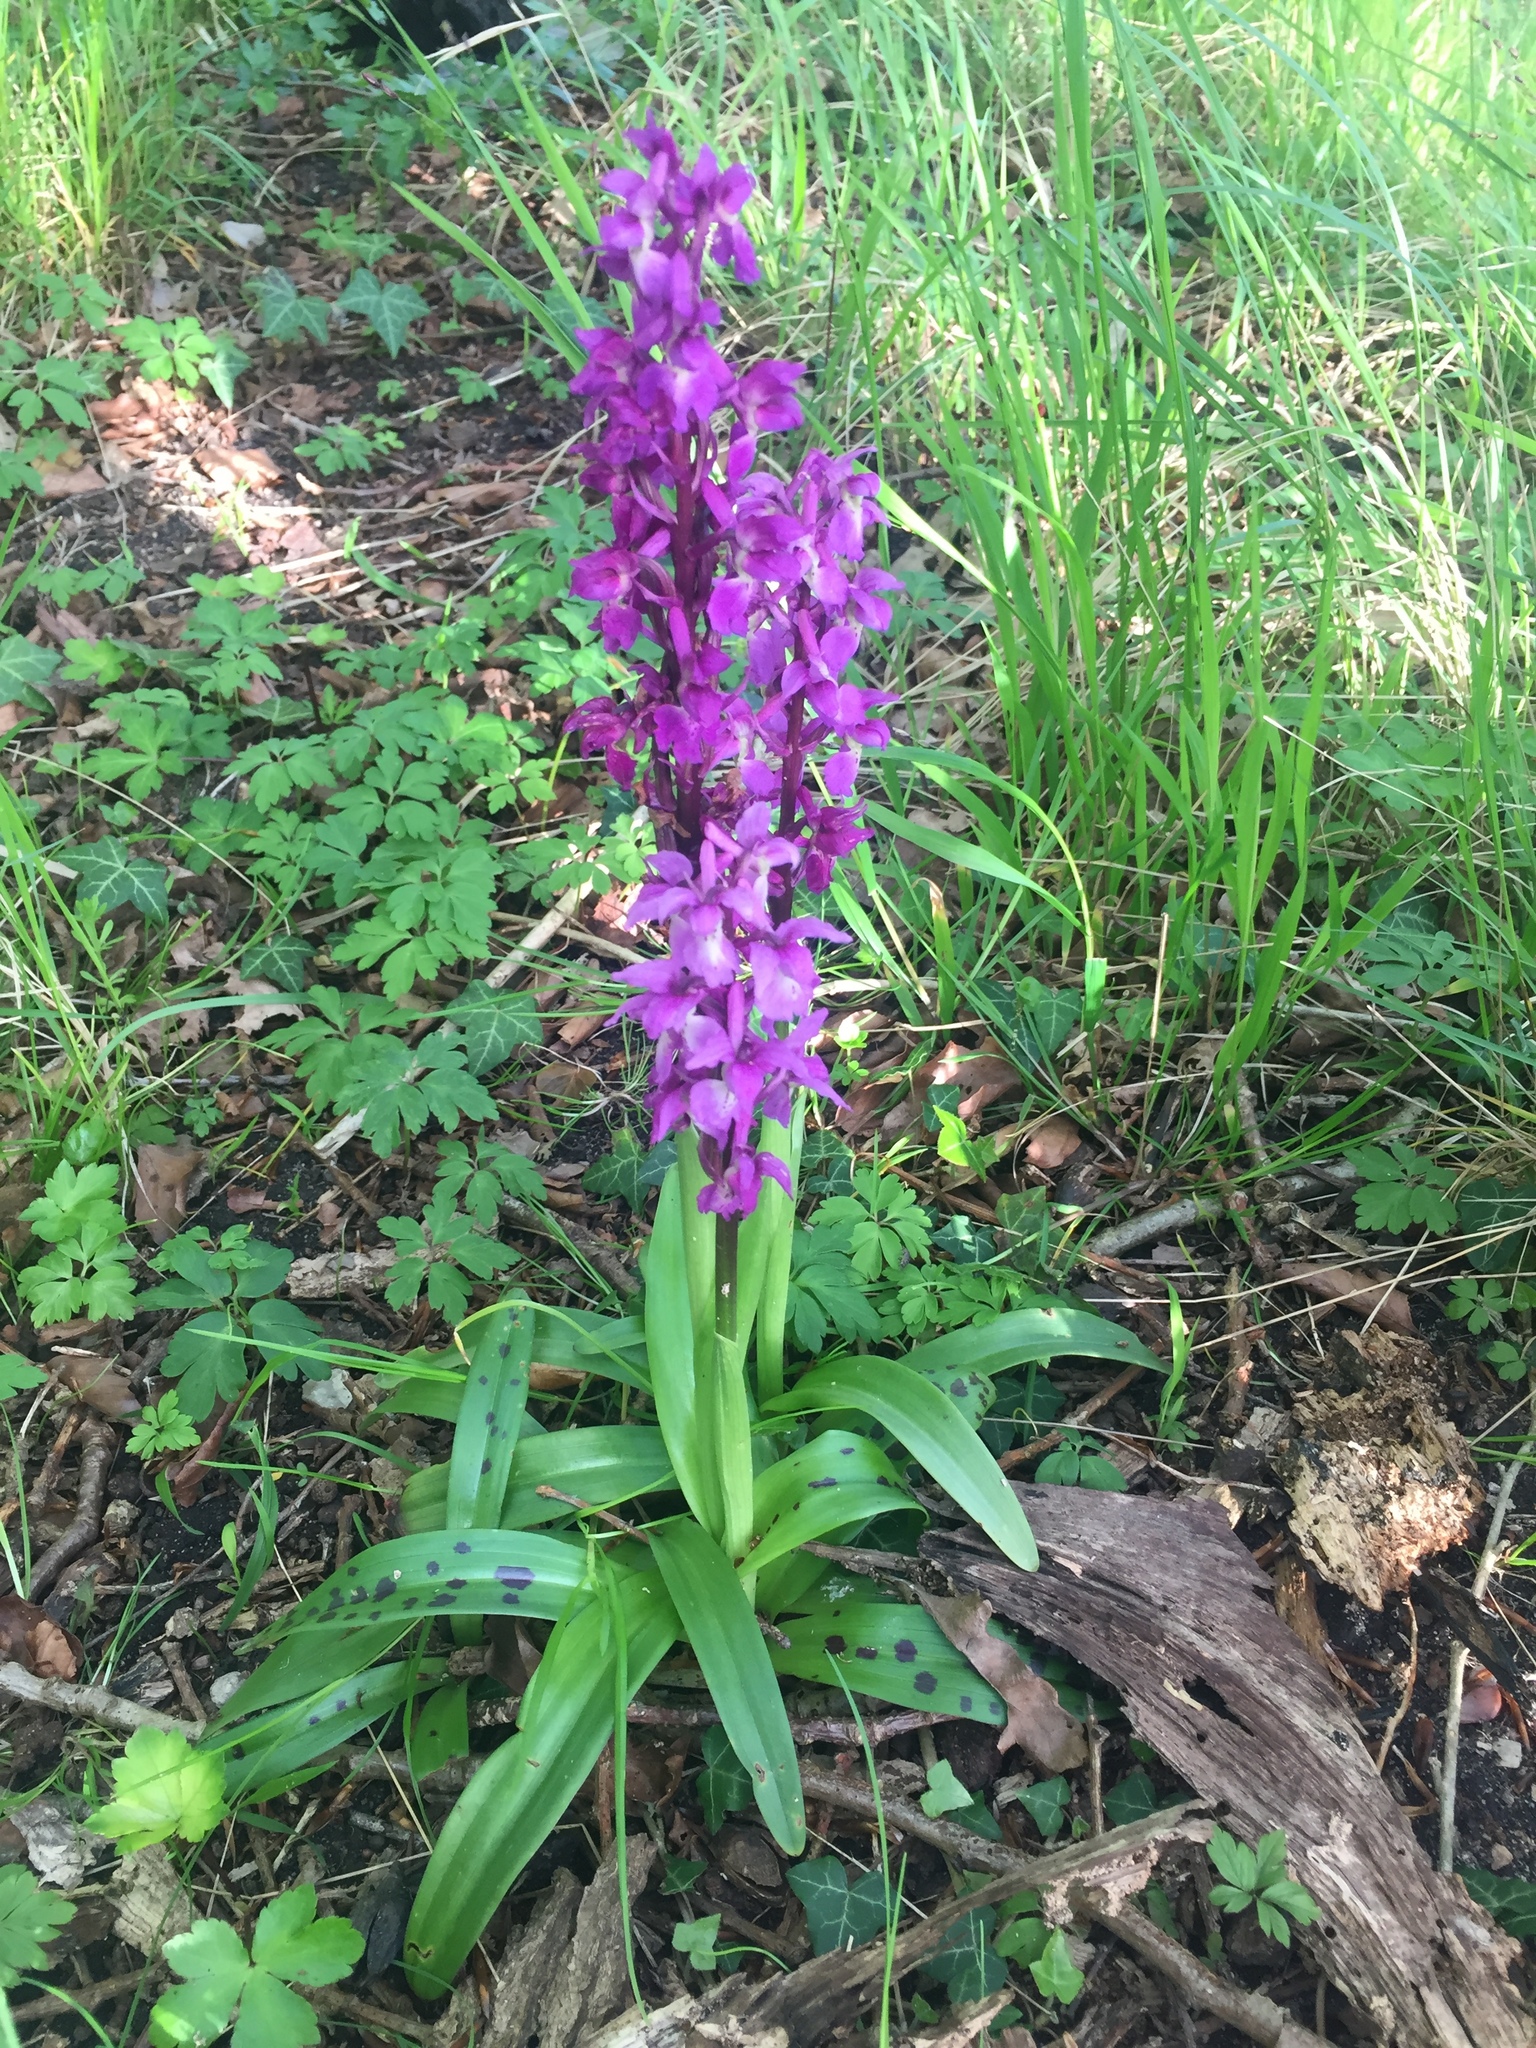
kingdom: Plantae
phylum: Tracheophyta
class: Liliopsida
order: Asparagales
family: Orchidaceae
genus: Orchis
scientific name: Orchis mascula
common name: Early-purple orchid
